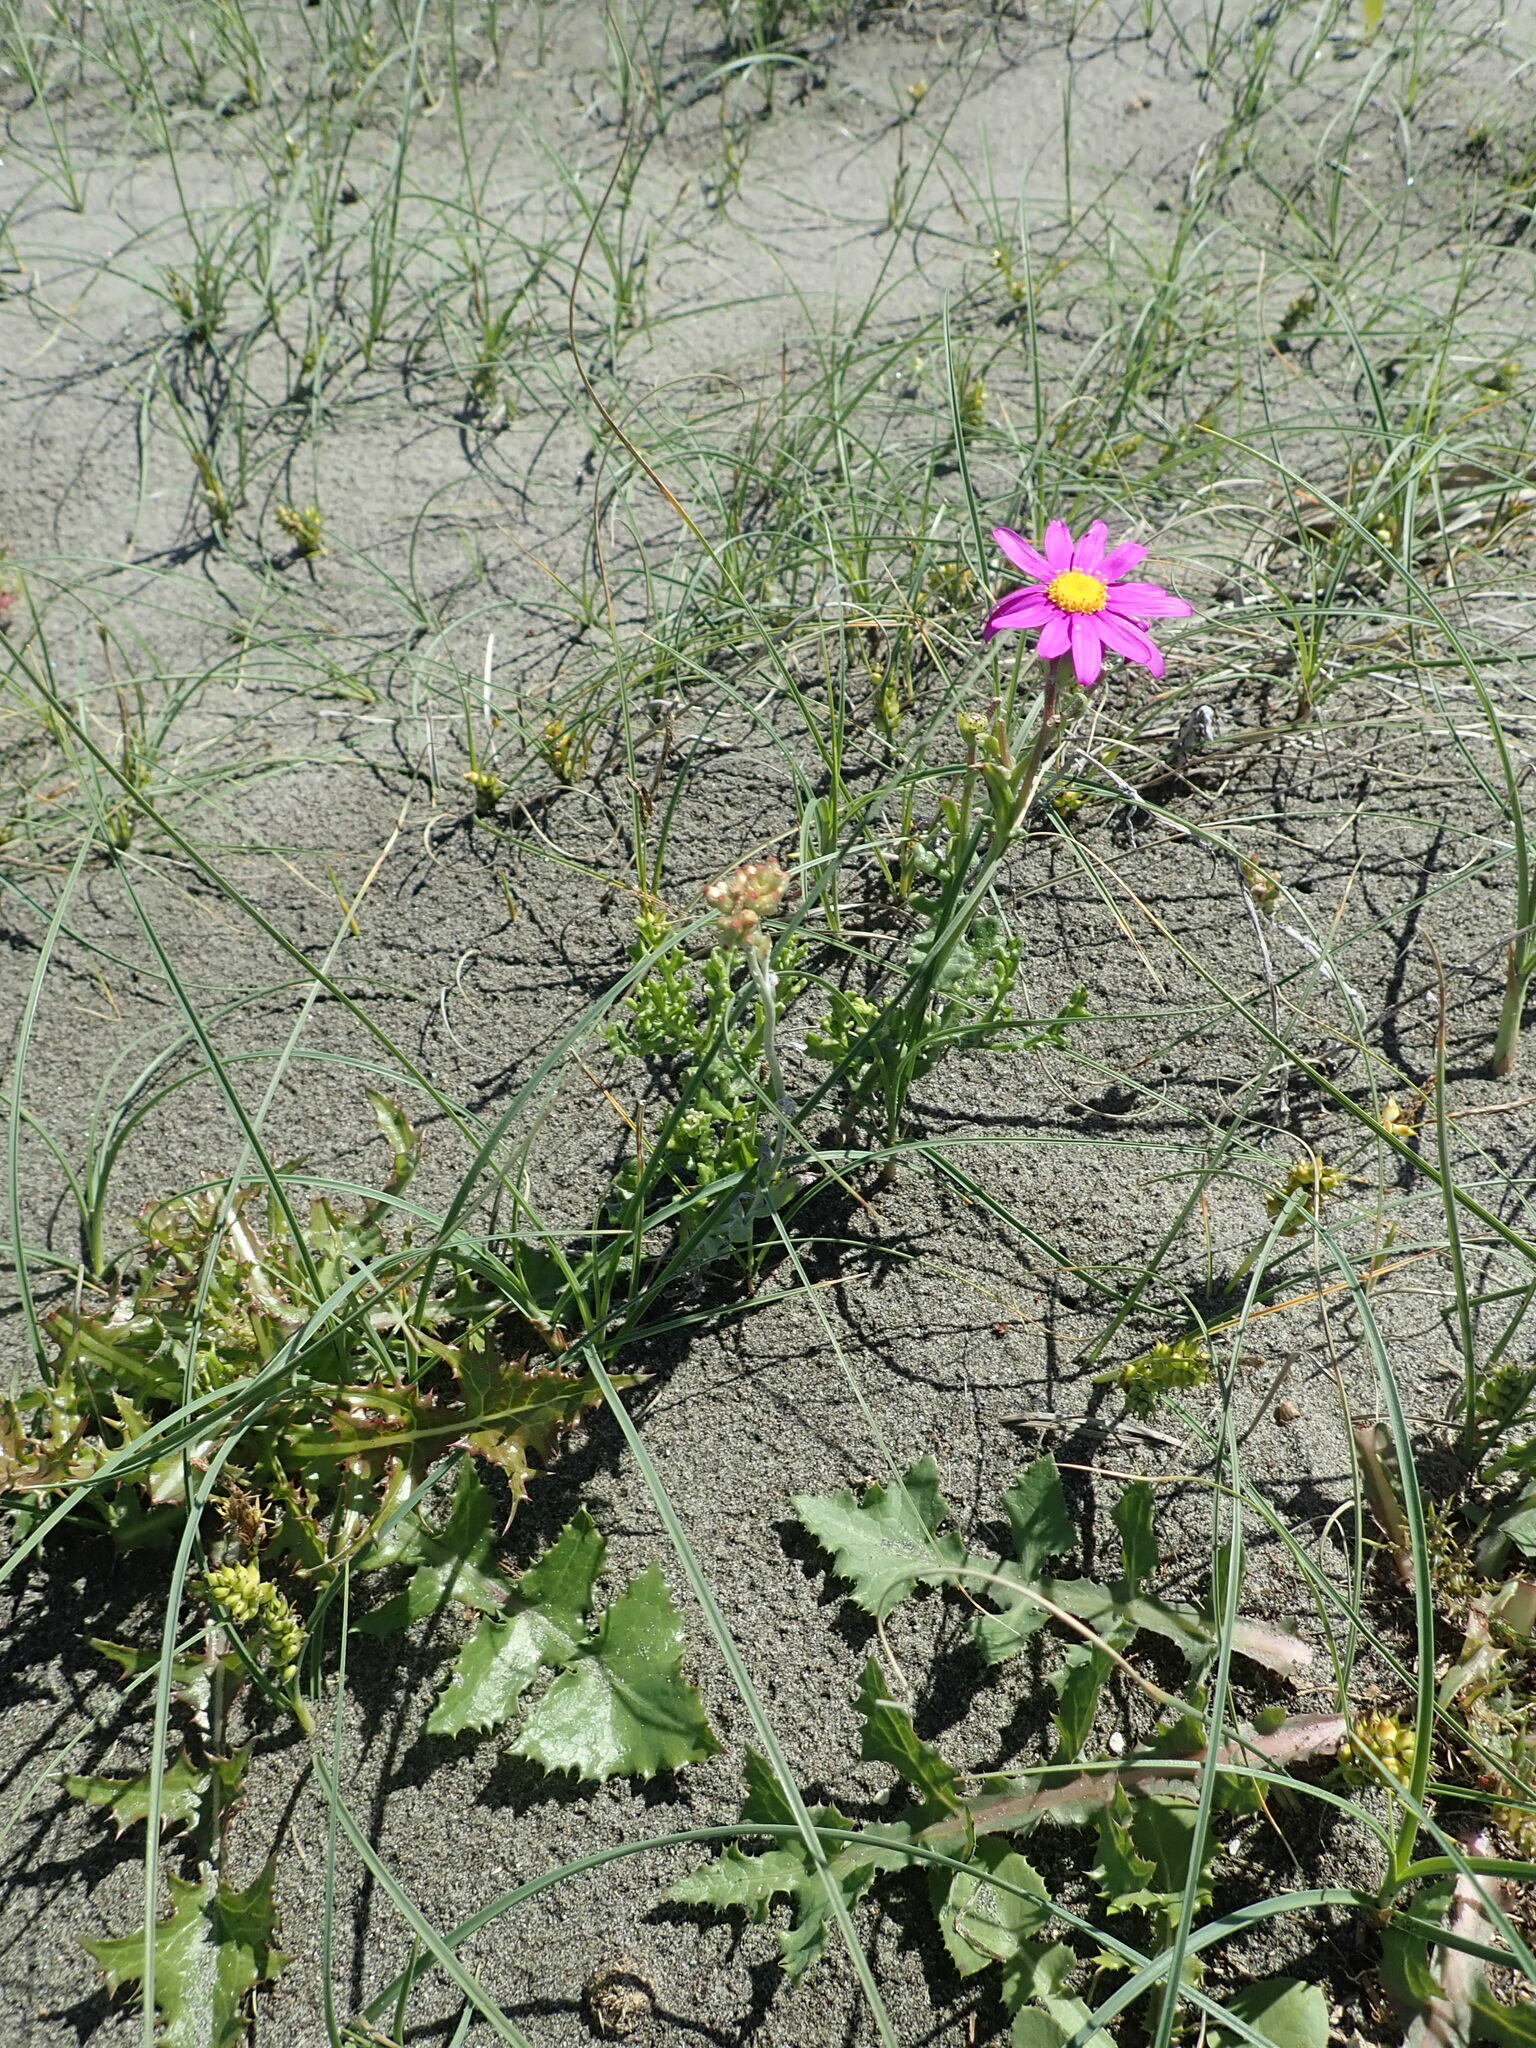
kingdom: Plantae
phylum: Tracheophyta
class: Magnoliopsida
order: Asterales
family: Asteraceae
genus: Senecio
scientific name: Senecio elegans
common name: Purple groundsel
